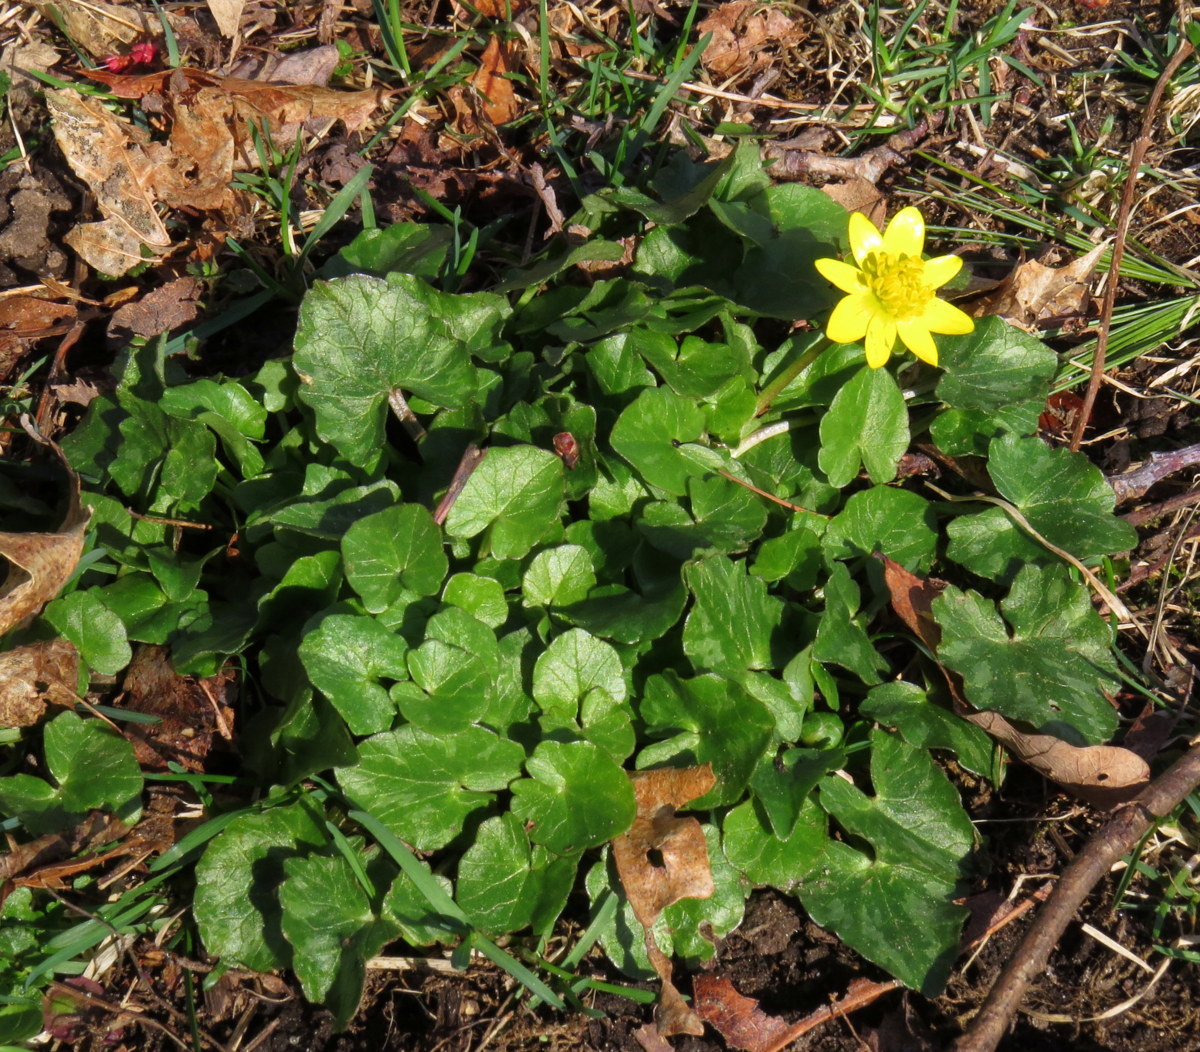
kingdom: Plantae
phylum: Tracheophyta
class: Magnoliopsida
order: Ranunculales
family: Ranunculaceae
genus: Ficaria
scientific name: Ficaria verna
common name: Lesser celandine
